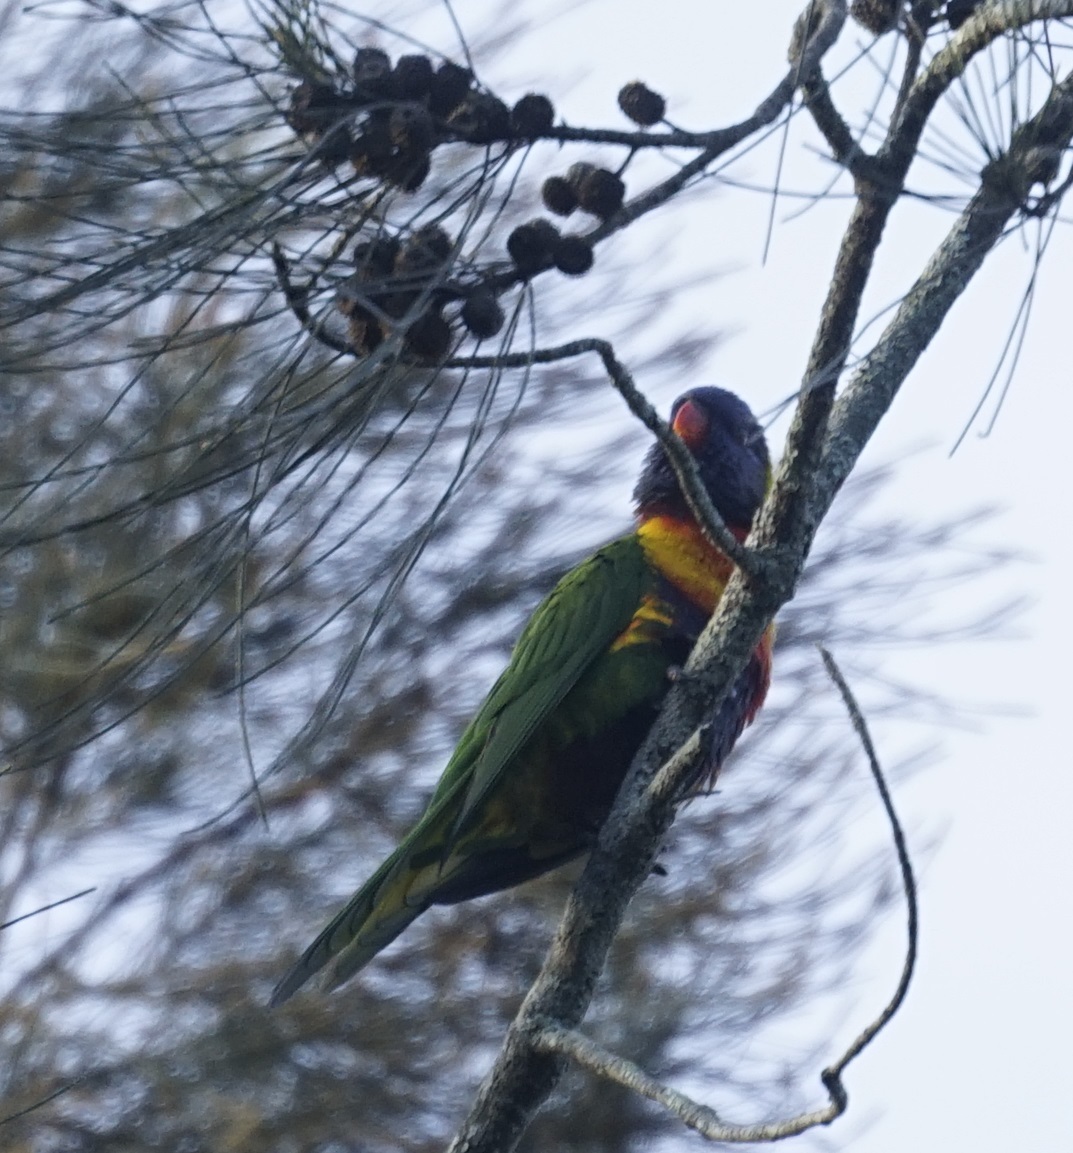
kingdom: Animalia
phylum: Chordata
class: Aves
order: Psittaciformes
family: Psittacidae
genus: Trichoglossus
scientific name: Trichoglossus haematodus
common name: Coconut lorikeet
